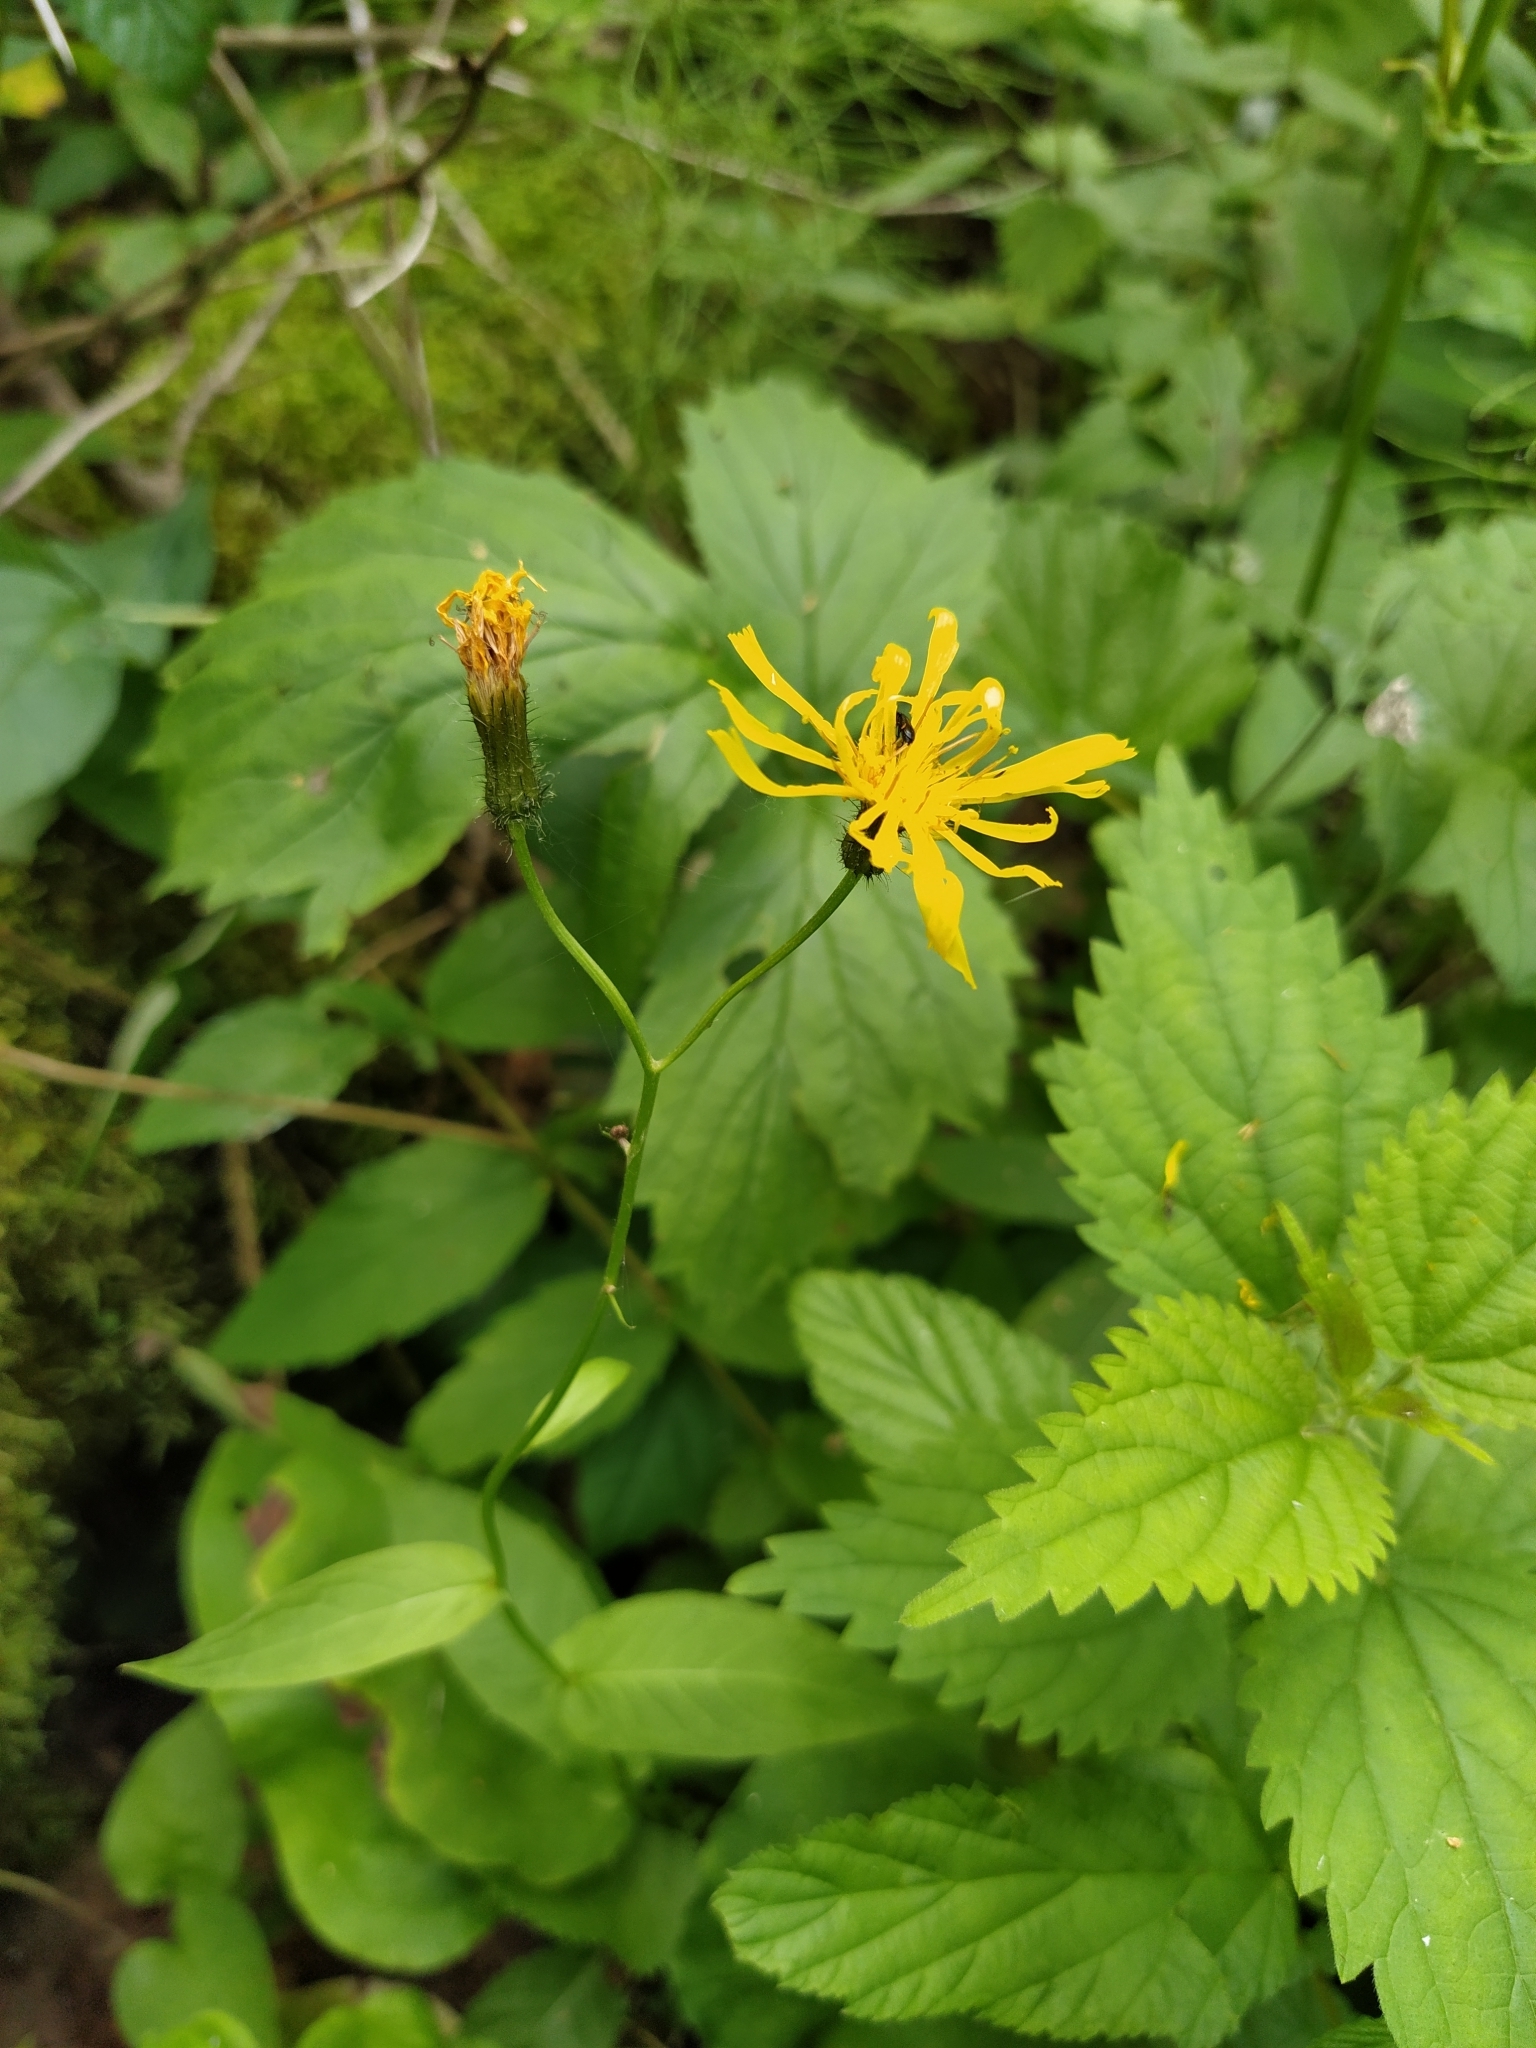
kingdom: Plantae
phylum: Tracheophyta
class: Magnoliopsida
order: Asterales
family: Asteraceae
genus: Crepis
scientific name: Crepis paludosa
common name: Marsh hawk's-beard
